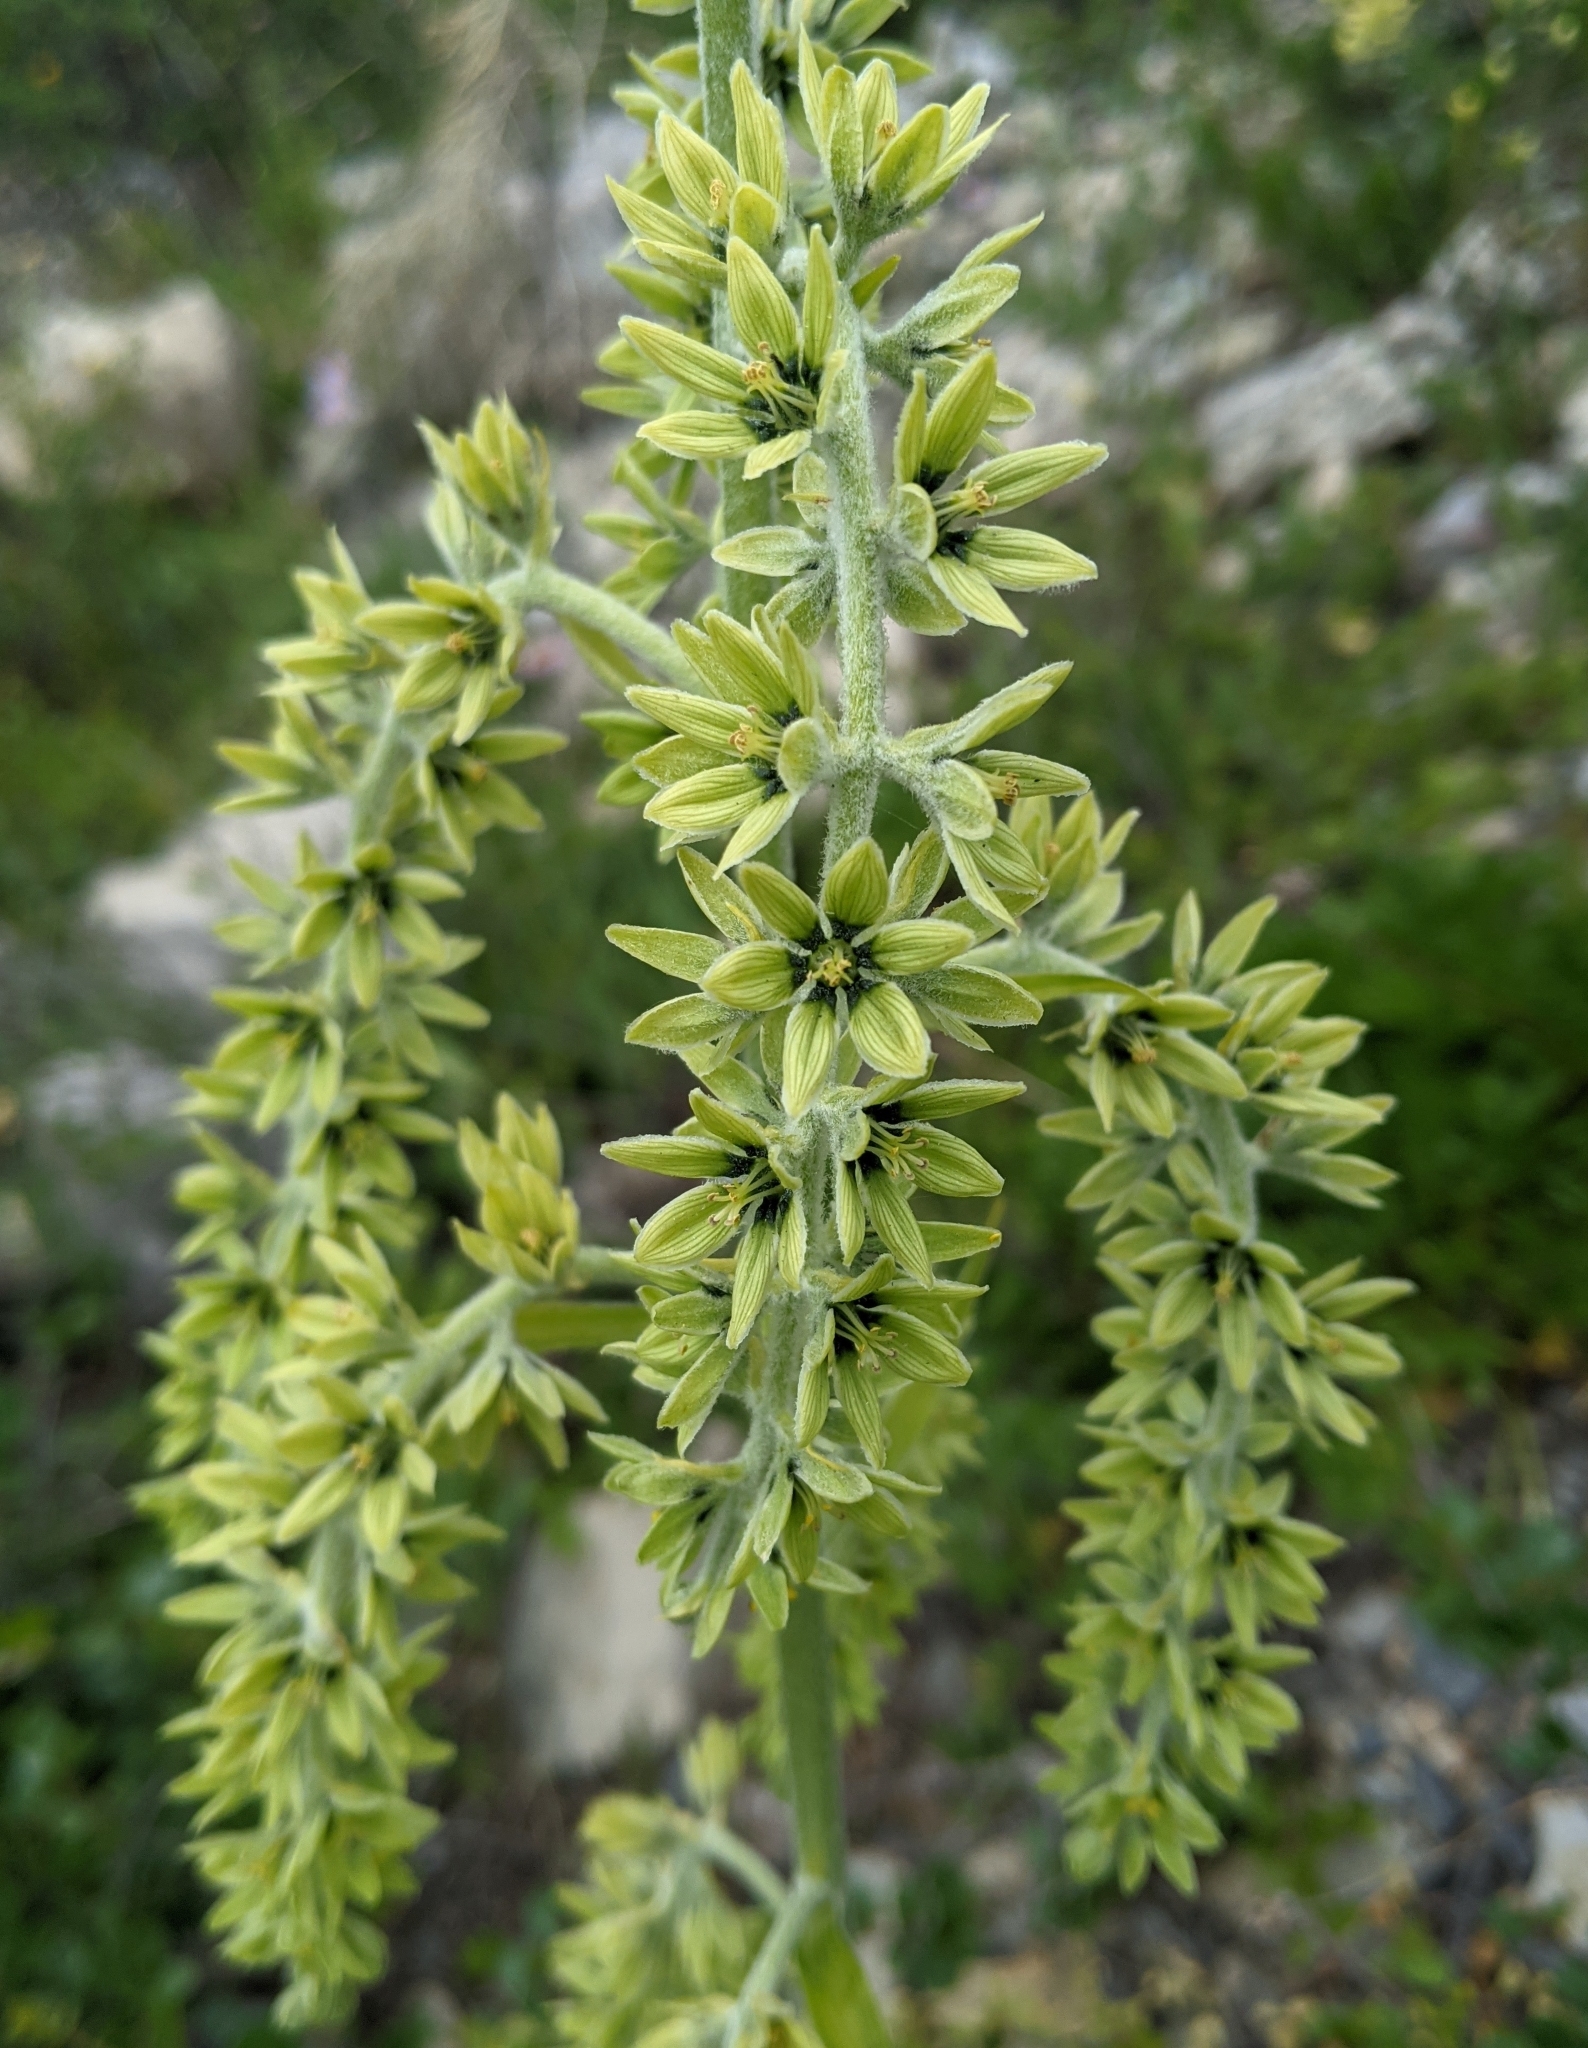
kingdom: Plantae
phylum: Tracheophyta
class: Liliopsida
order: Liliales
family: Melanthiaceae
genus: Veratrum
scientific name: Veratrum viride
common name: American false hellebore
